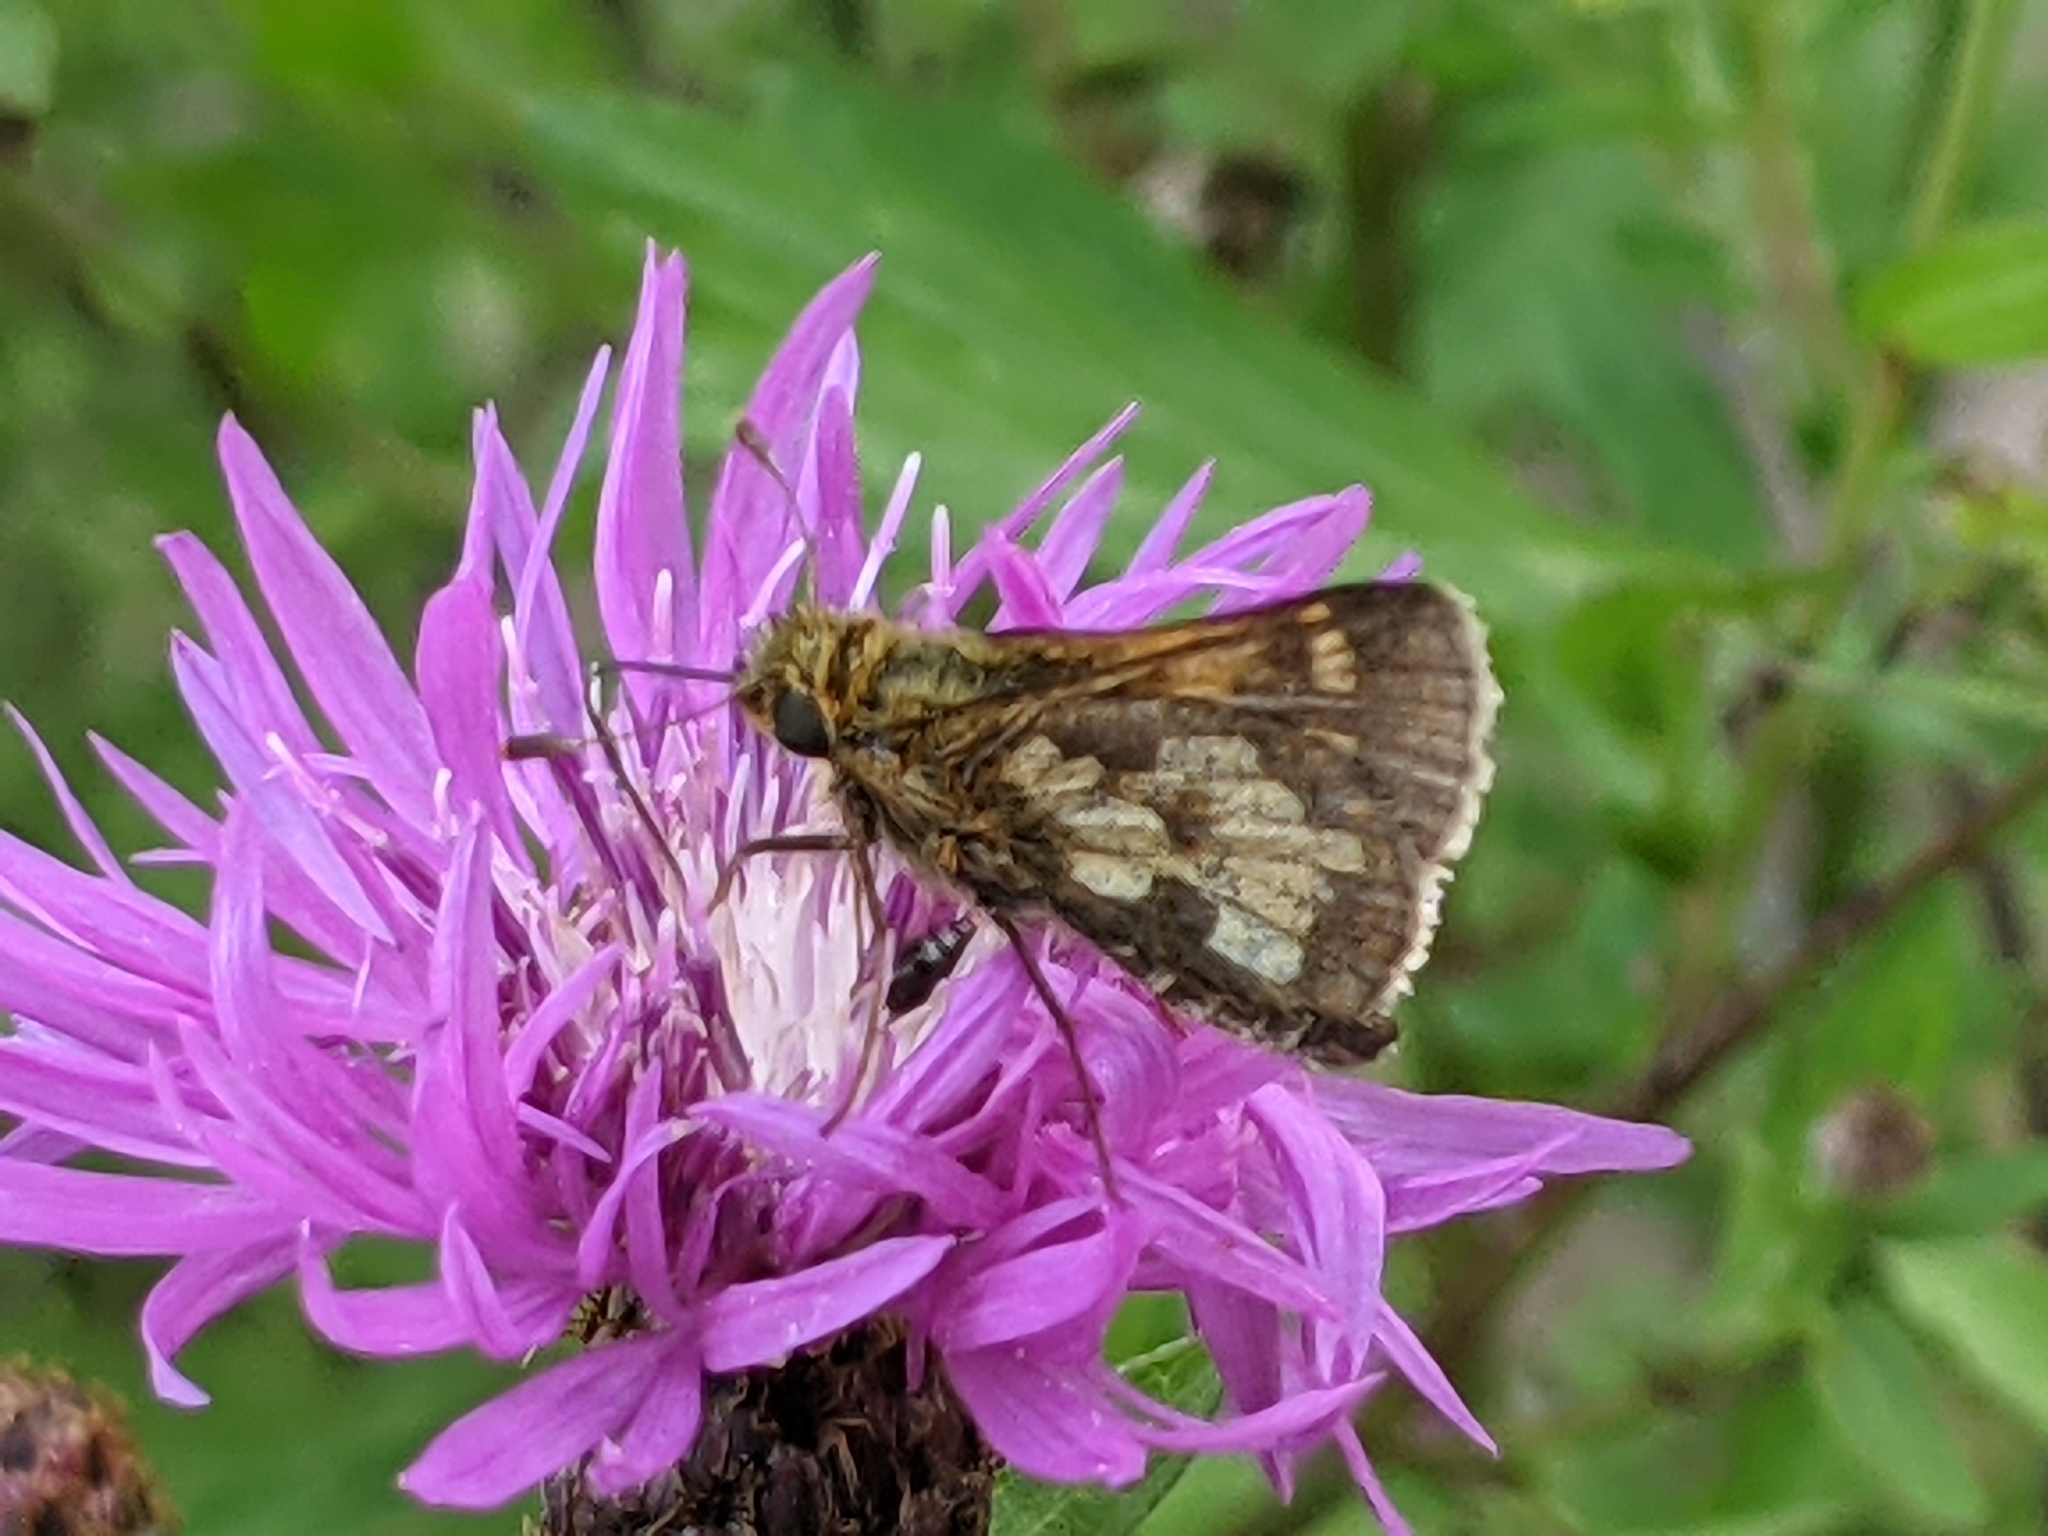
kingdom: Animalia
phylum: Arthropoda
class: Insecta
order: Lepidoptera
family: Hesperiidae
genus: Polites
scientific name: Polites coras
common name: Peck's skipper
